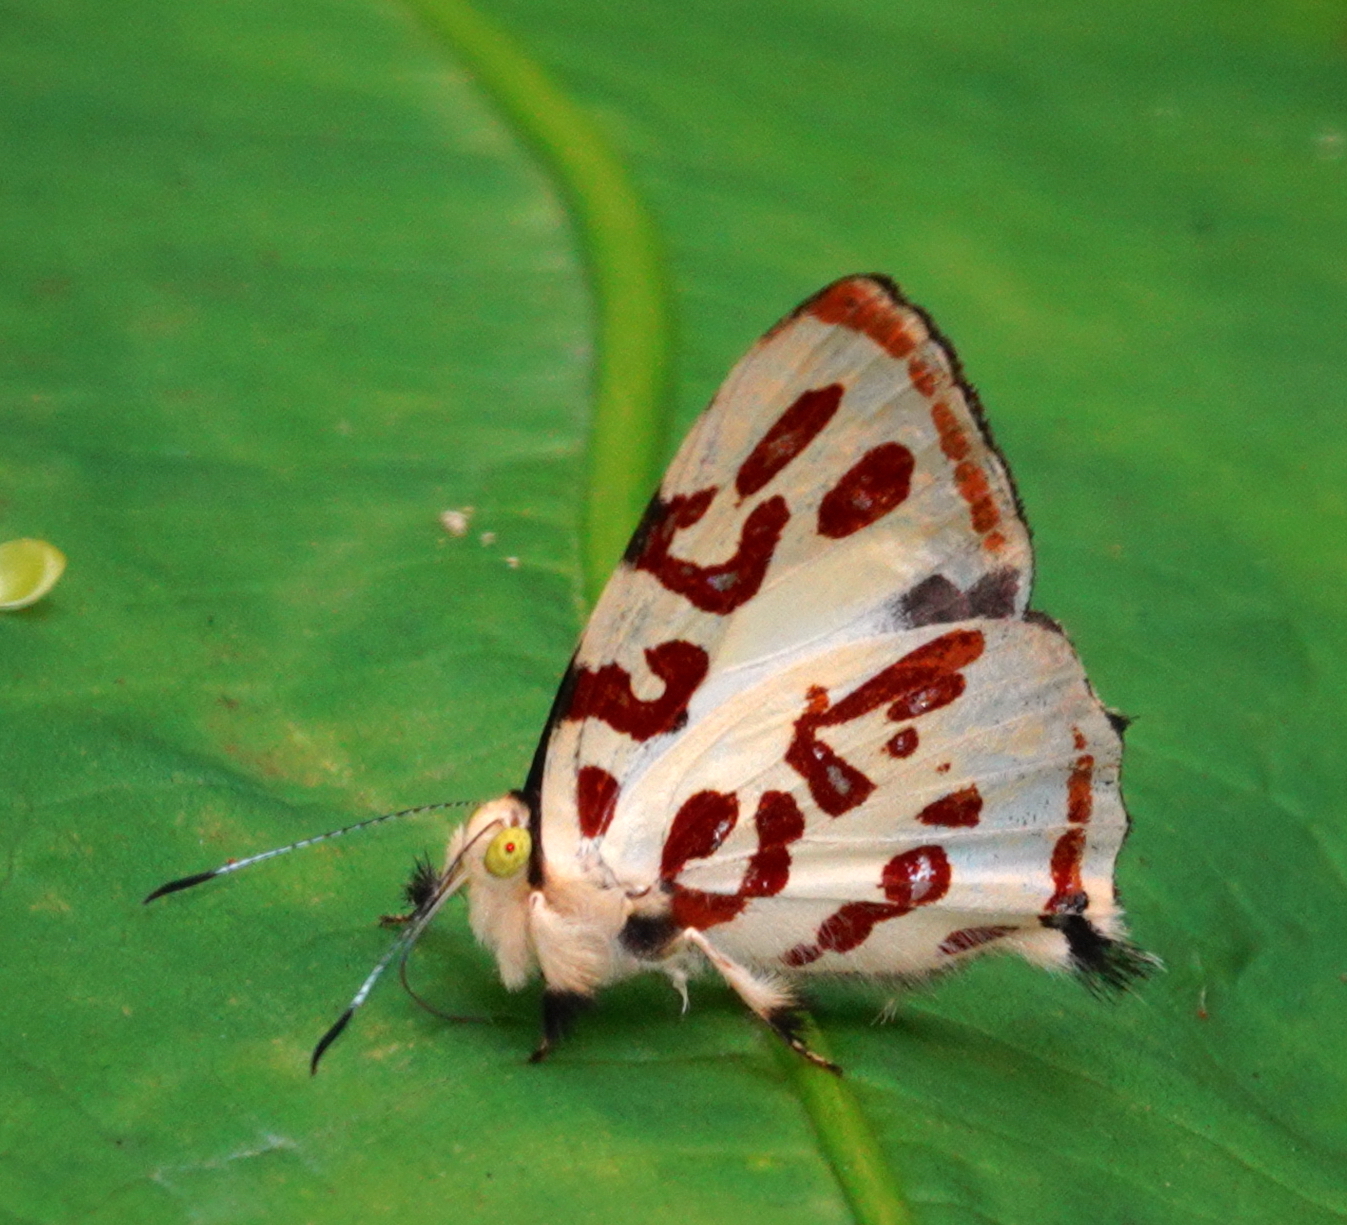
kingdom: Animalia
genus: Anteros
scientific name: Anteros kupris
